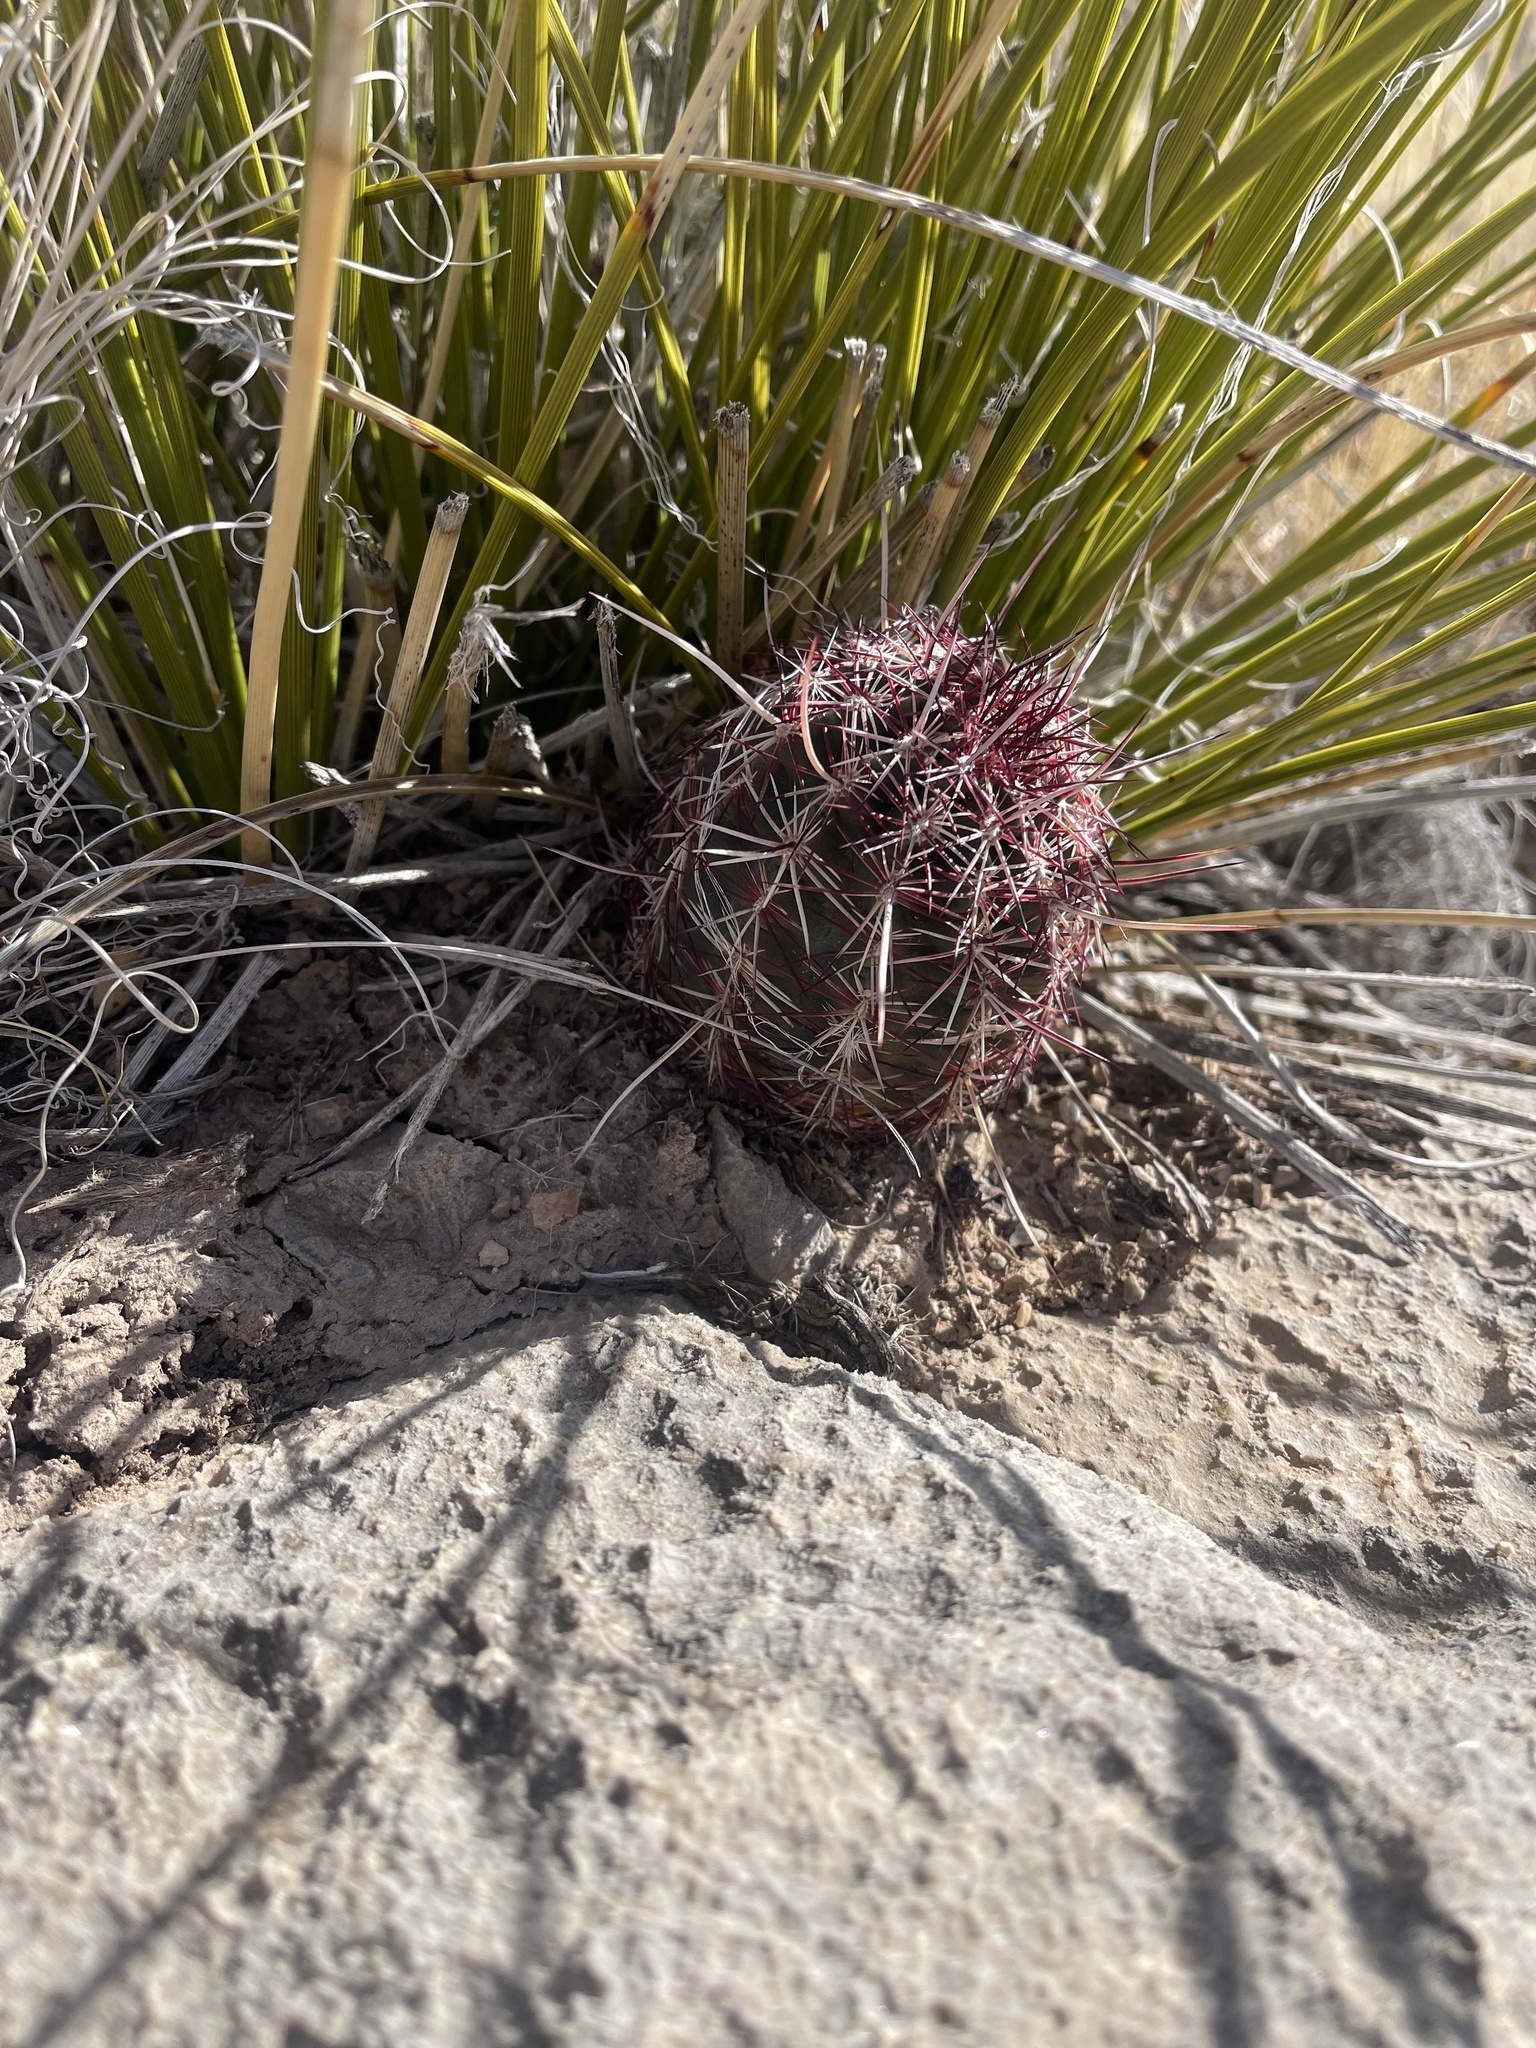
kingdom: Plantae
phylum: Tracheophyta
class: Magnoliopsida
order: Caryophyllales
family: Cactaceae
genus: Echinocereus
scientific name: Echinocereus viridiflorus
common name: Nylon hedgehog cactus
